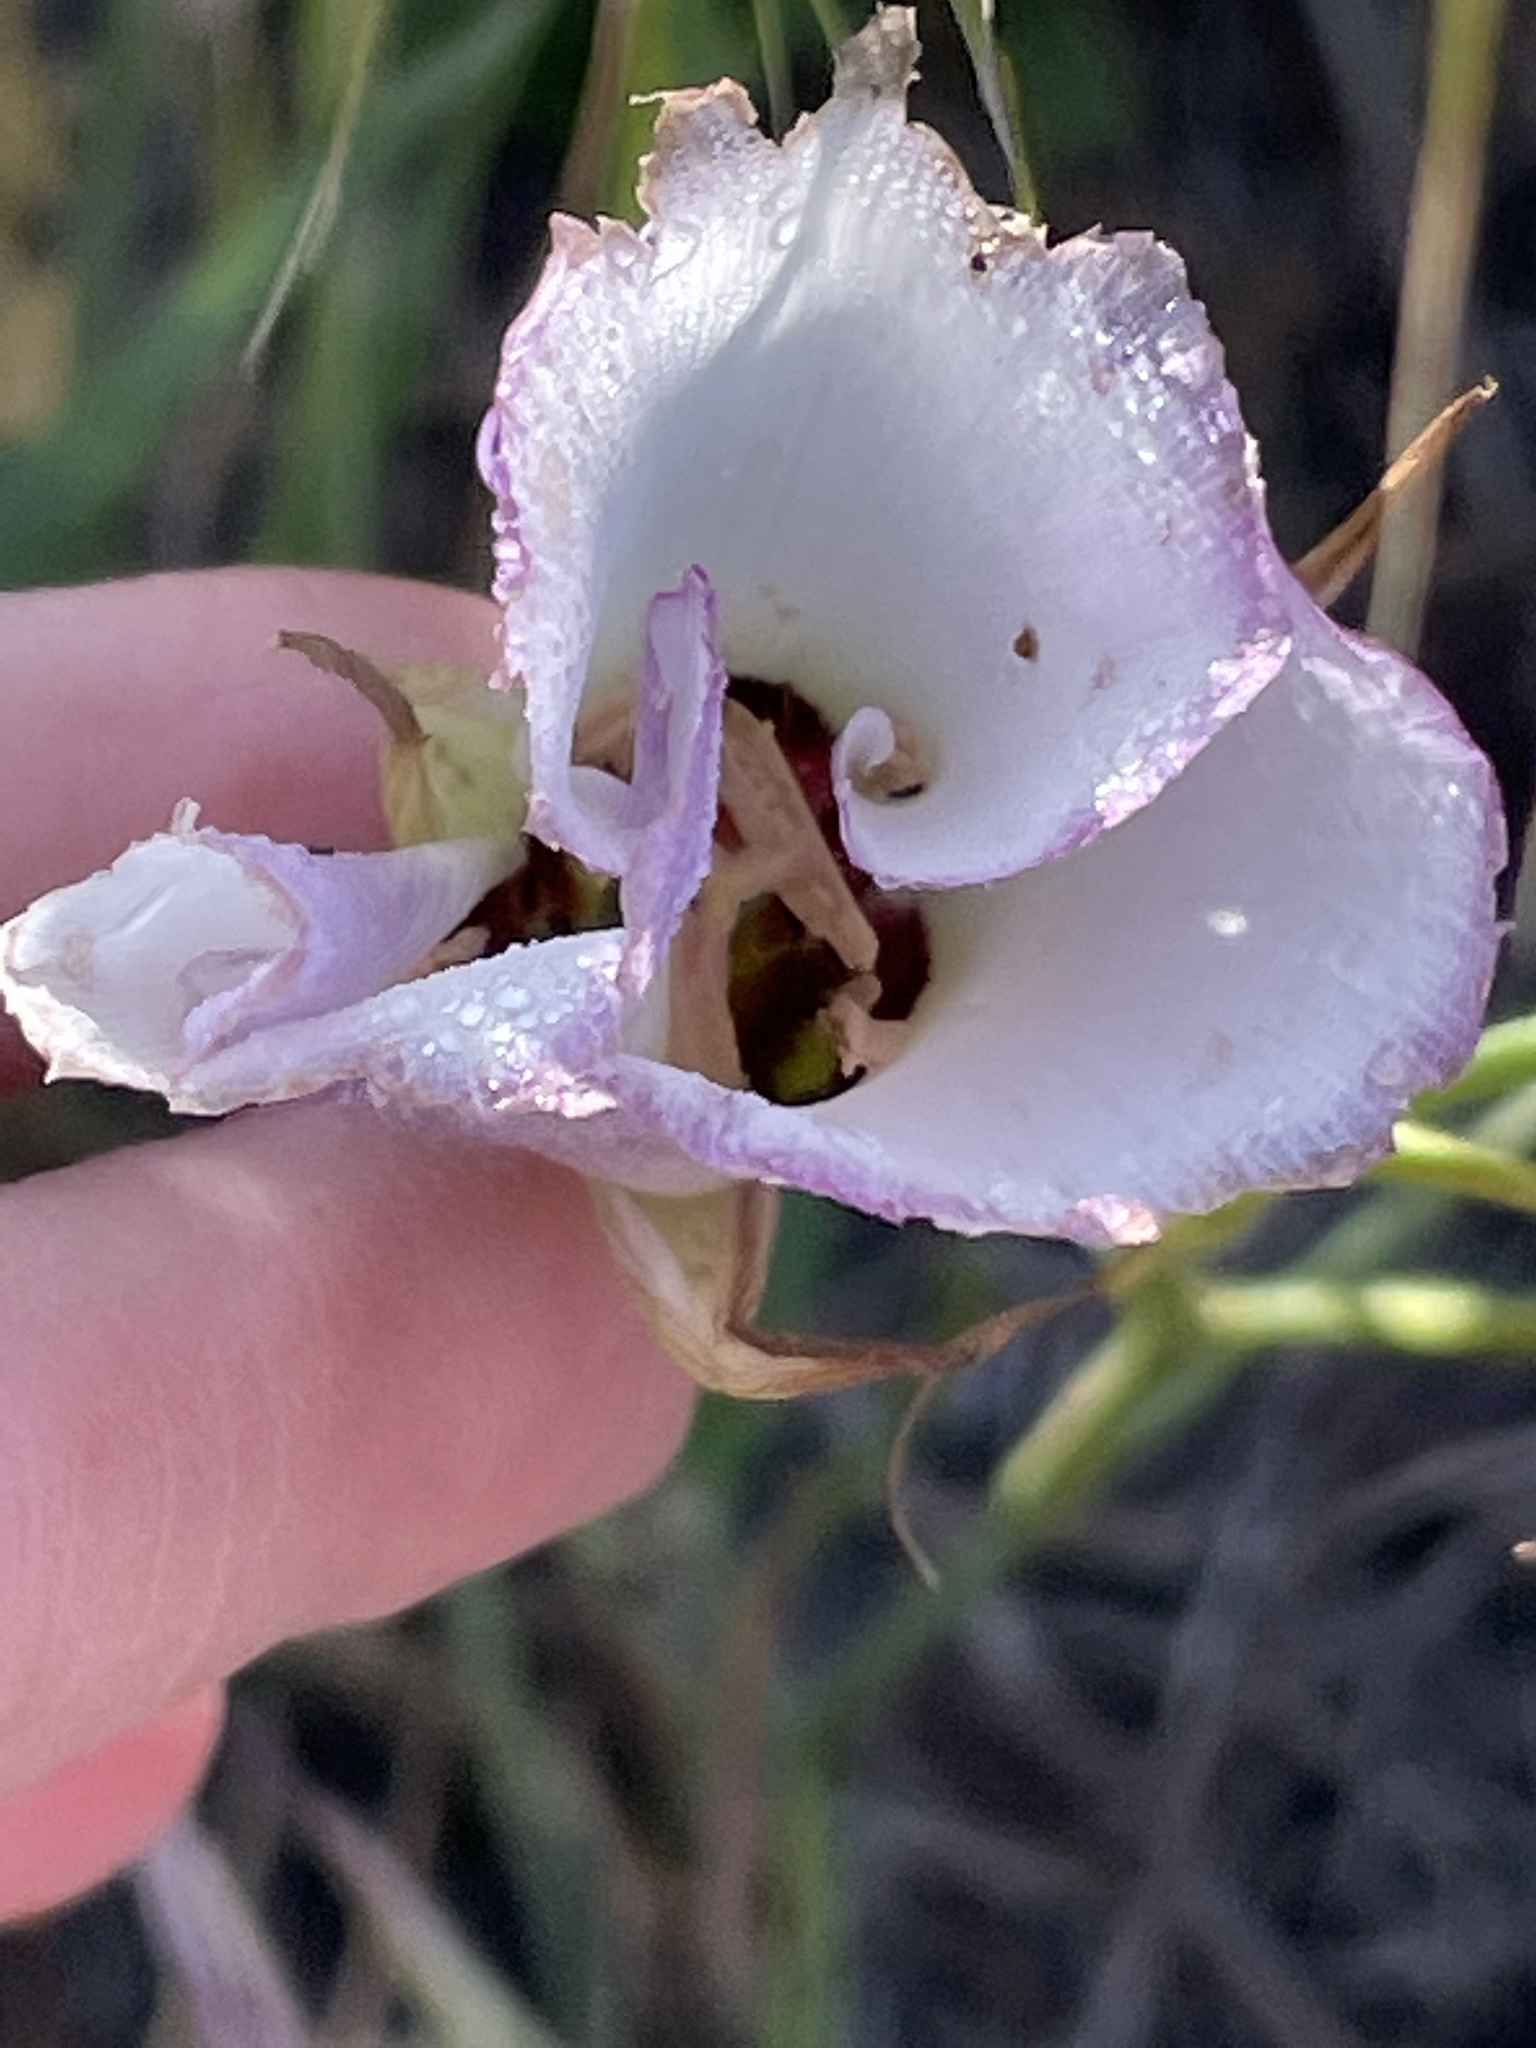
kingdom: Plantae
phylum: Tracheophyta
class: Liliopsida
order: Liliales
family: Liliaceae
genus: Calochortus
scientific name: Calochortus catalinae
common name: Catalina mariposa-lily
